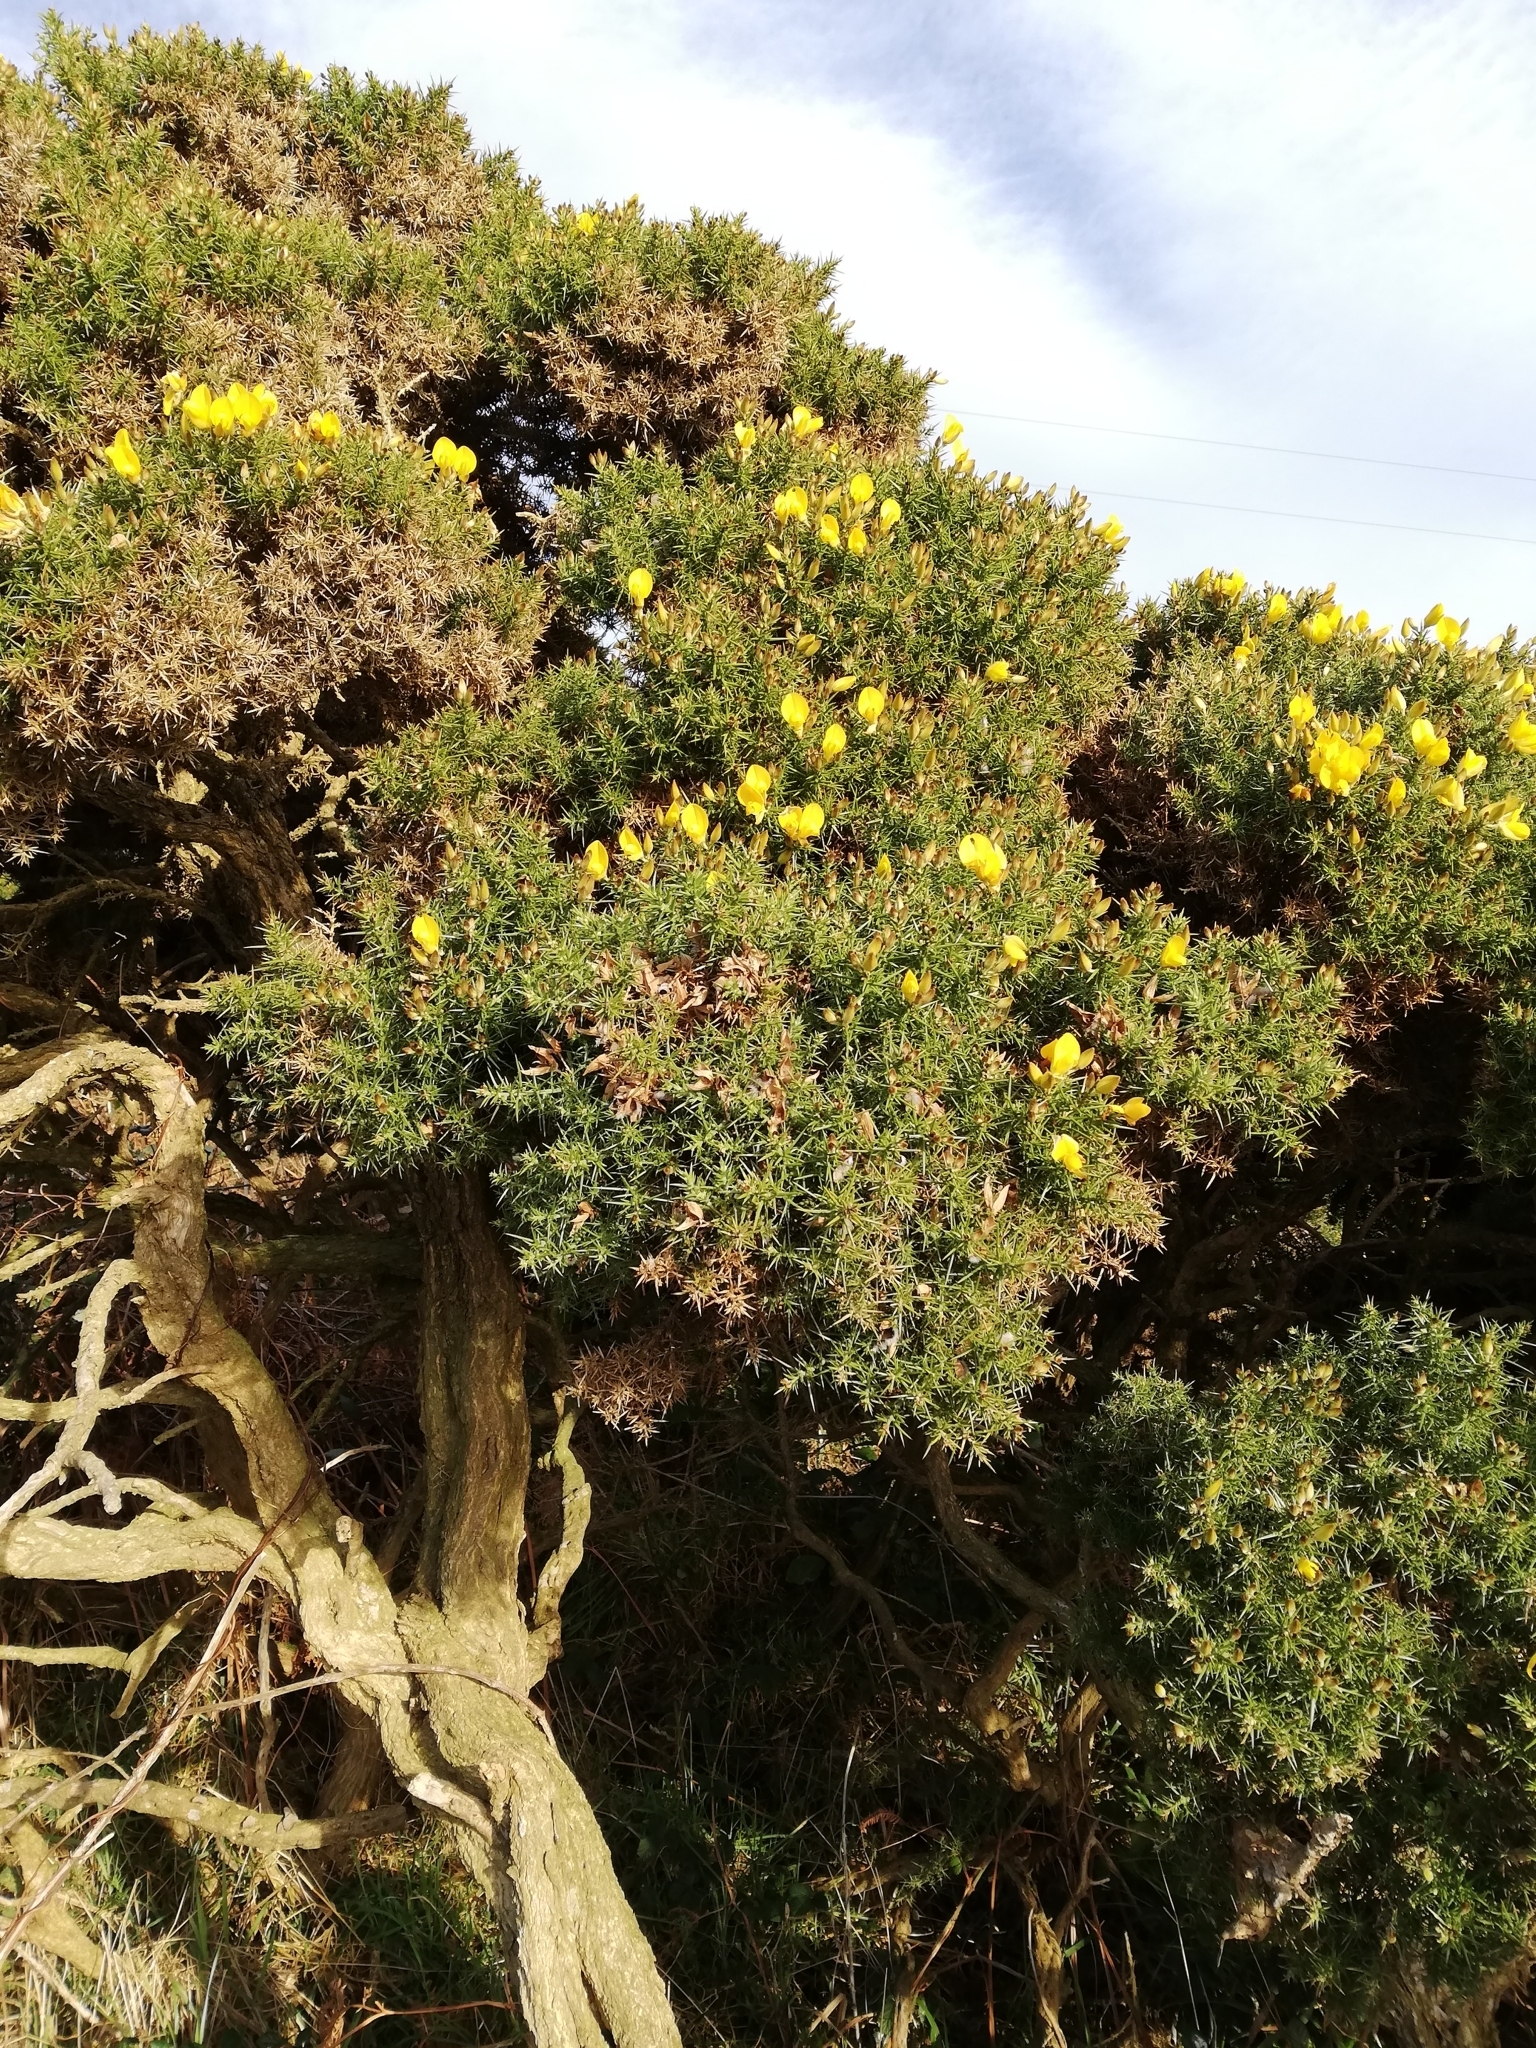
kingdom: Plantae
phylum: Tracheophyta
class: Magnoliopsida
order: Fabales
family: Fabaceae
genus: Ulex
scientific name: Ulex europaeus
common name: Common gorse
